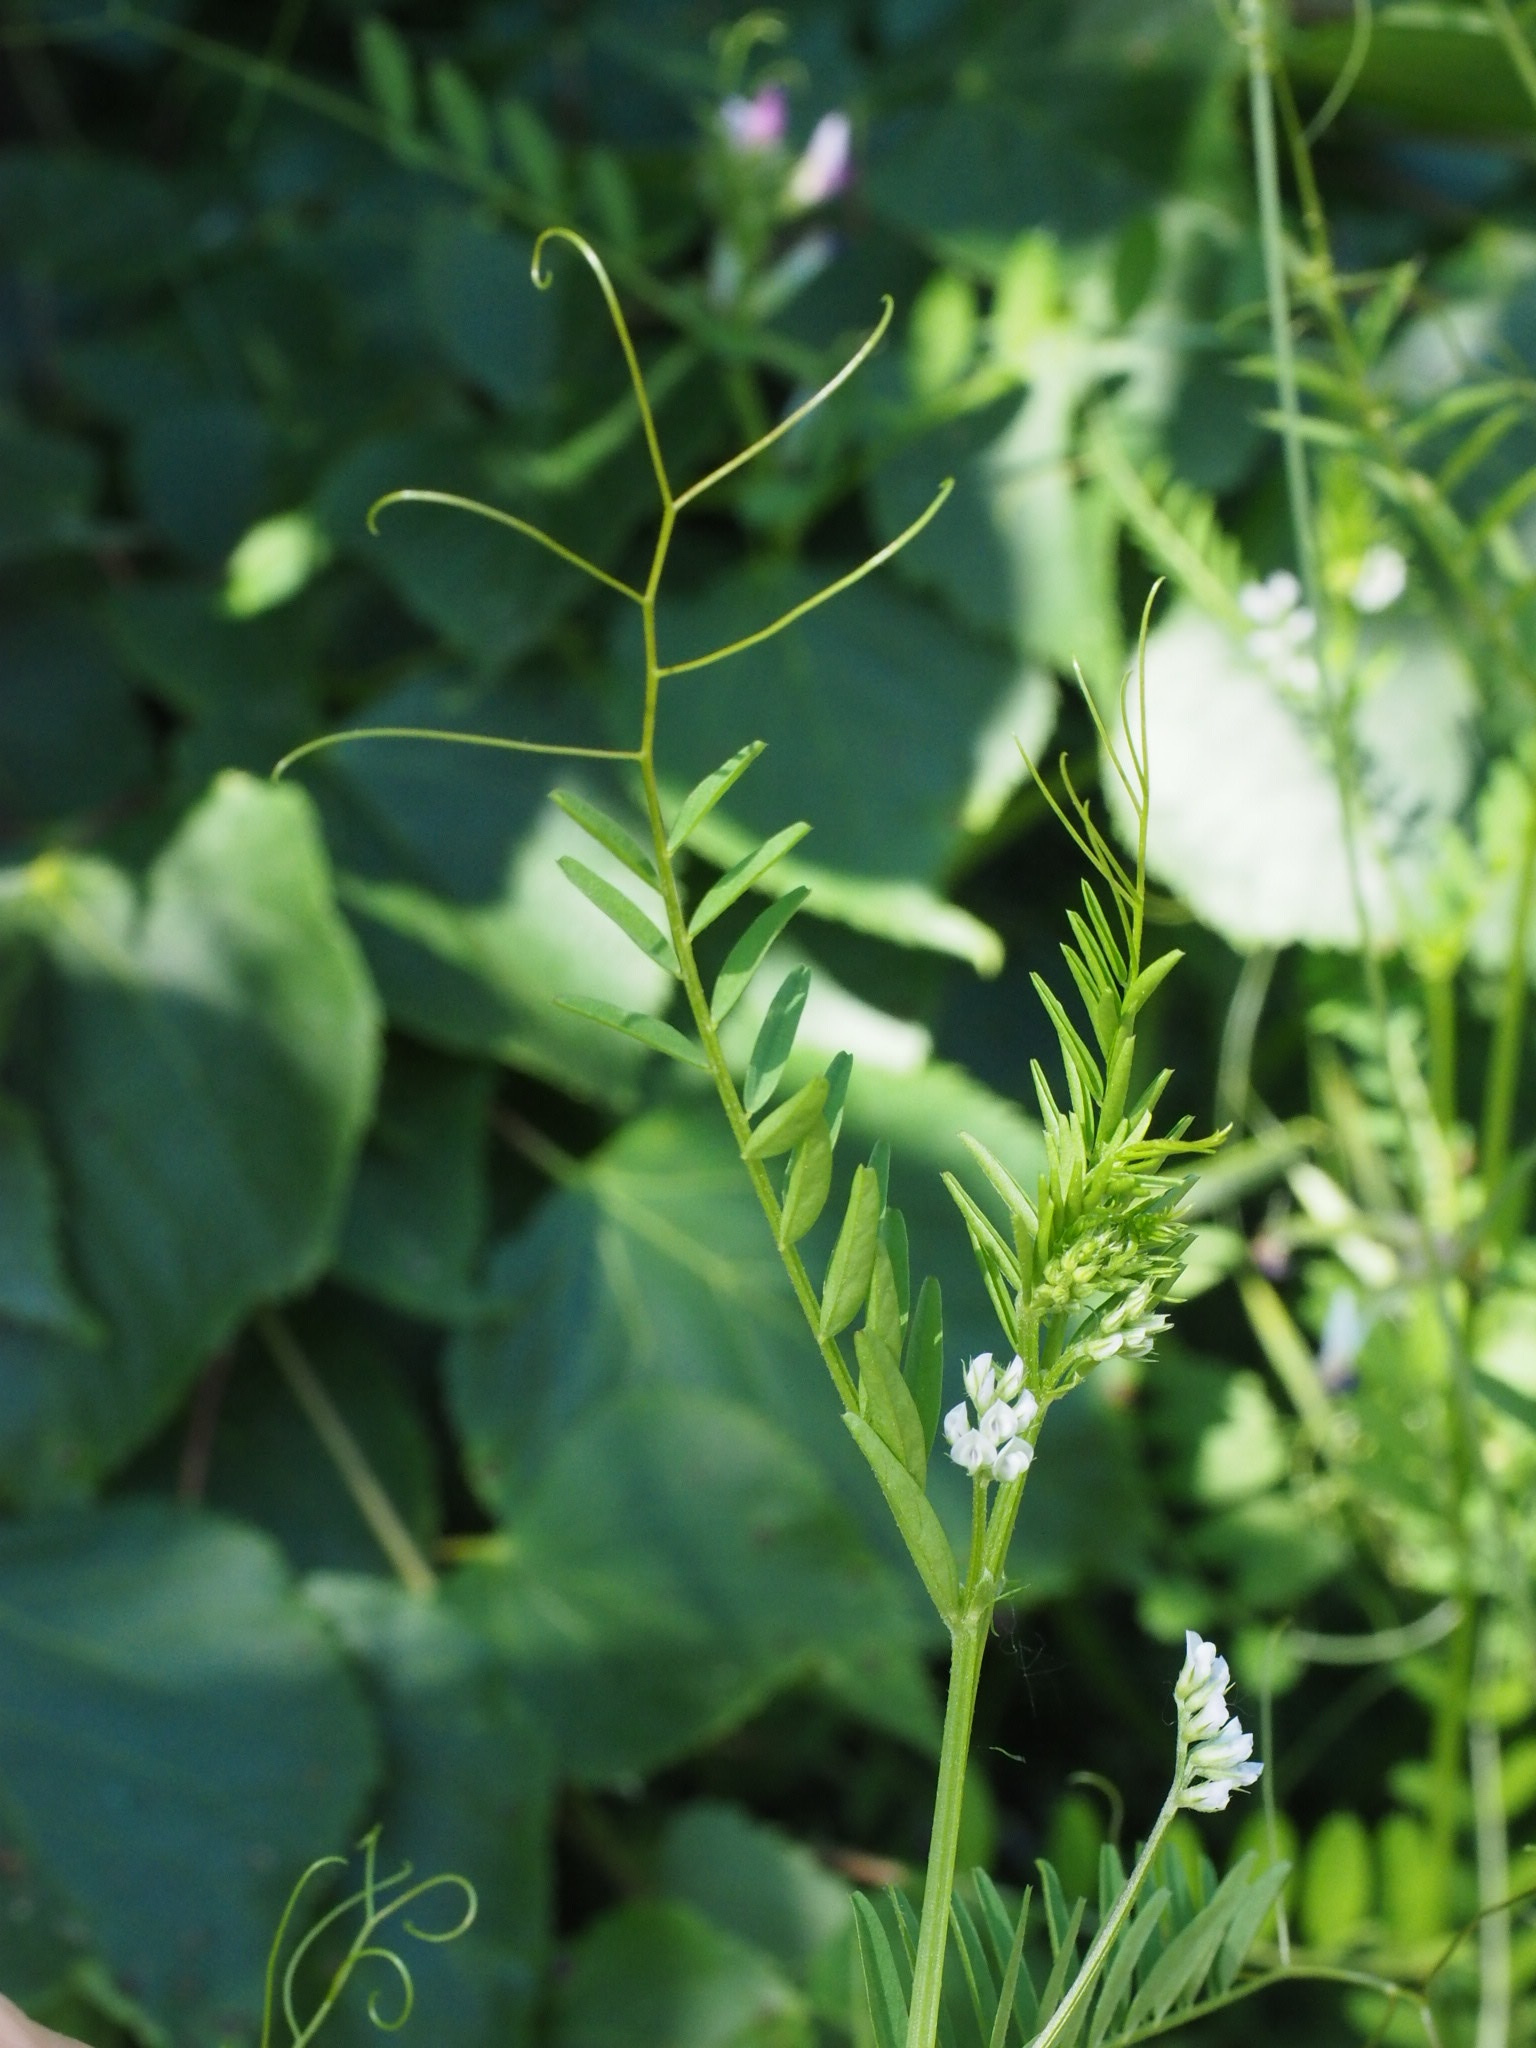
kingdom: Plantae
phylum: Tracheophyta
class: Magnoliopsida
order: Fabales
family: Fabaceae
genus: Vicia
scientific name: Vicia hirsuta
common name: Tiny vetch
